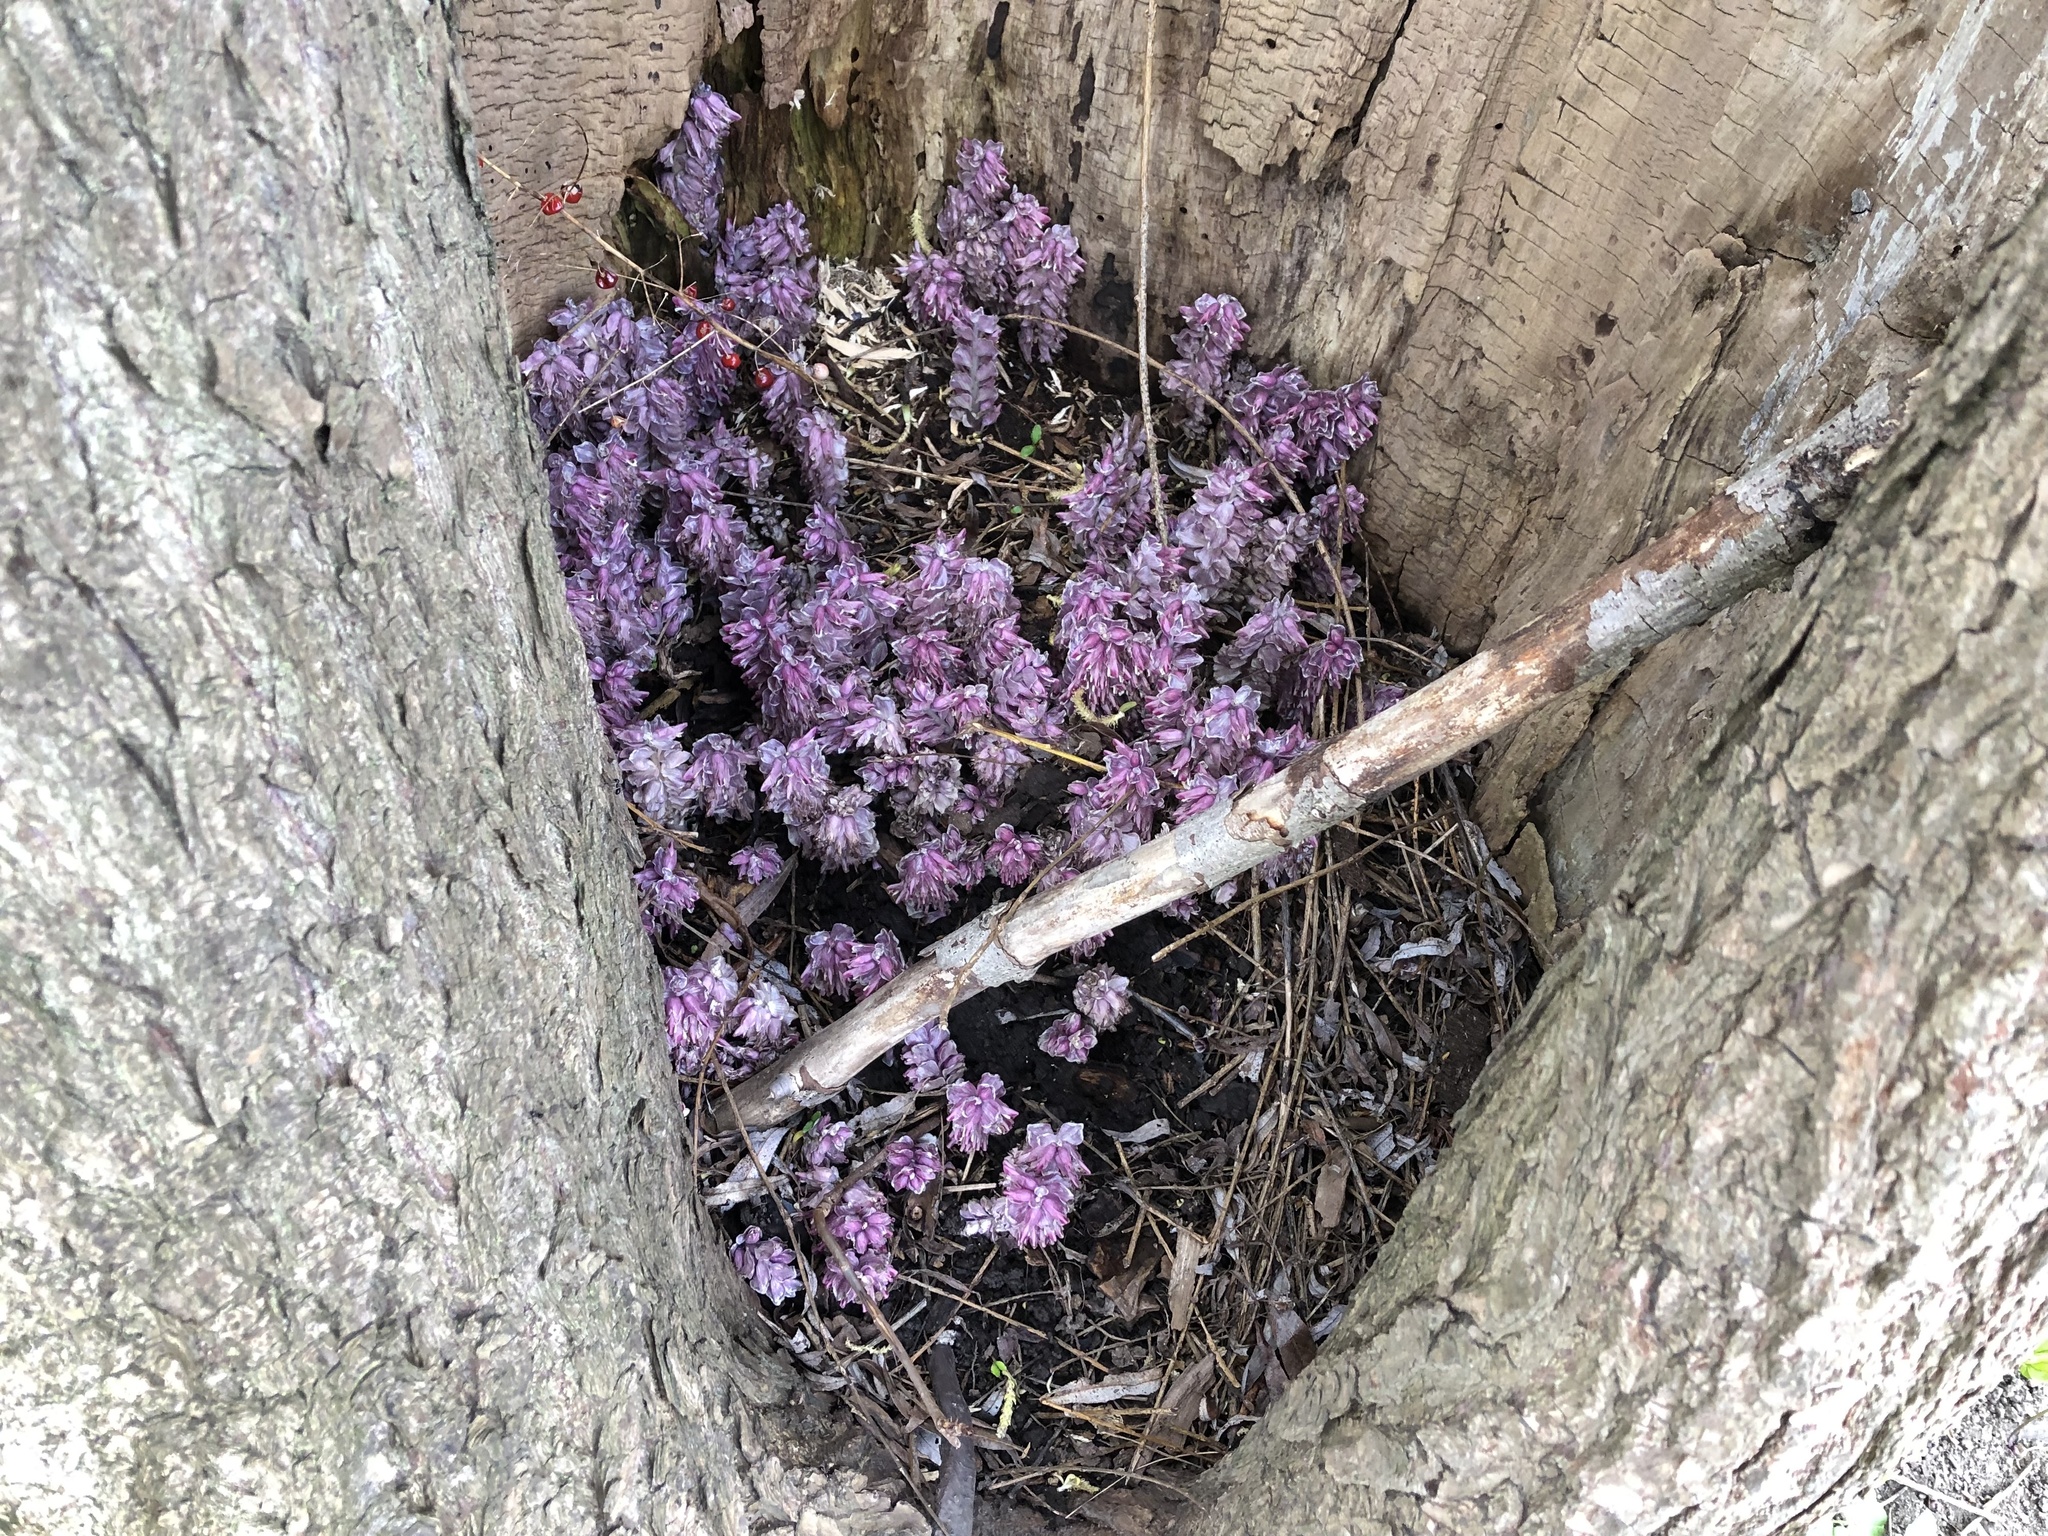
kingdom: Plantae
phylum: Tracheophyta
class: Magnoliopsida
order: Lamiales
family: Orobanchaceae
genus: Lathraea
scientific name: Lathraea squamaria
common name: Toothwort
